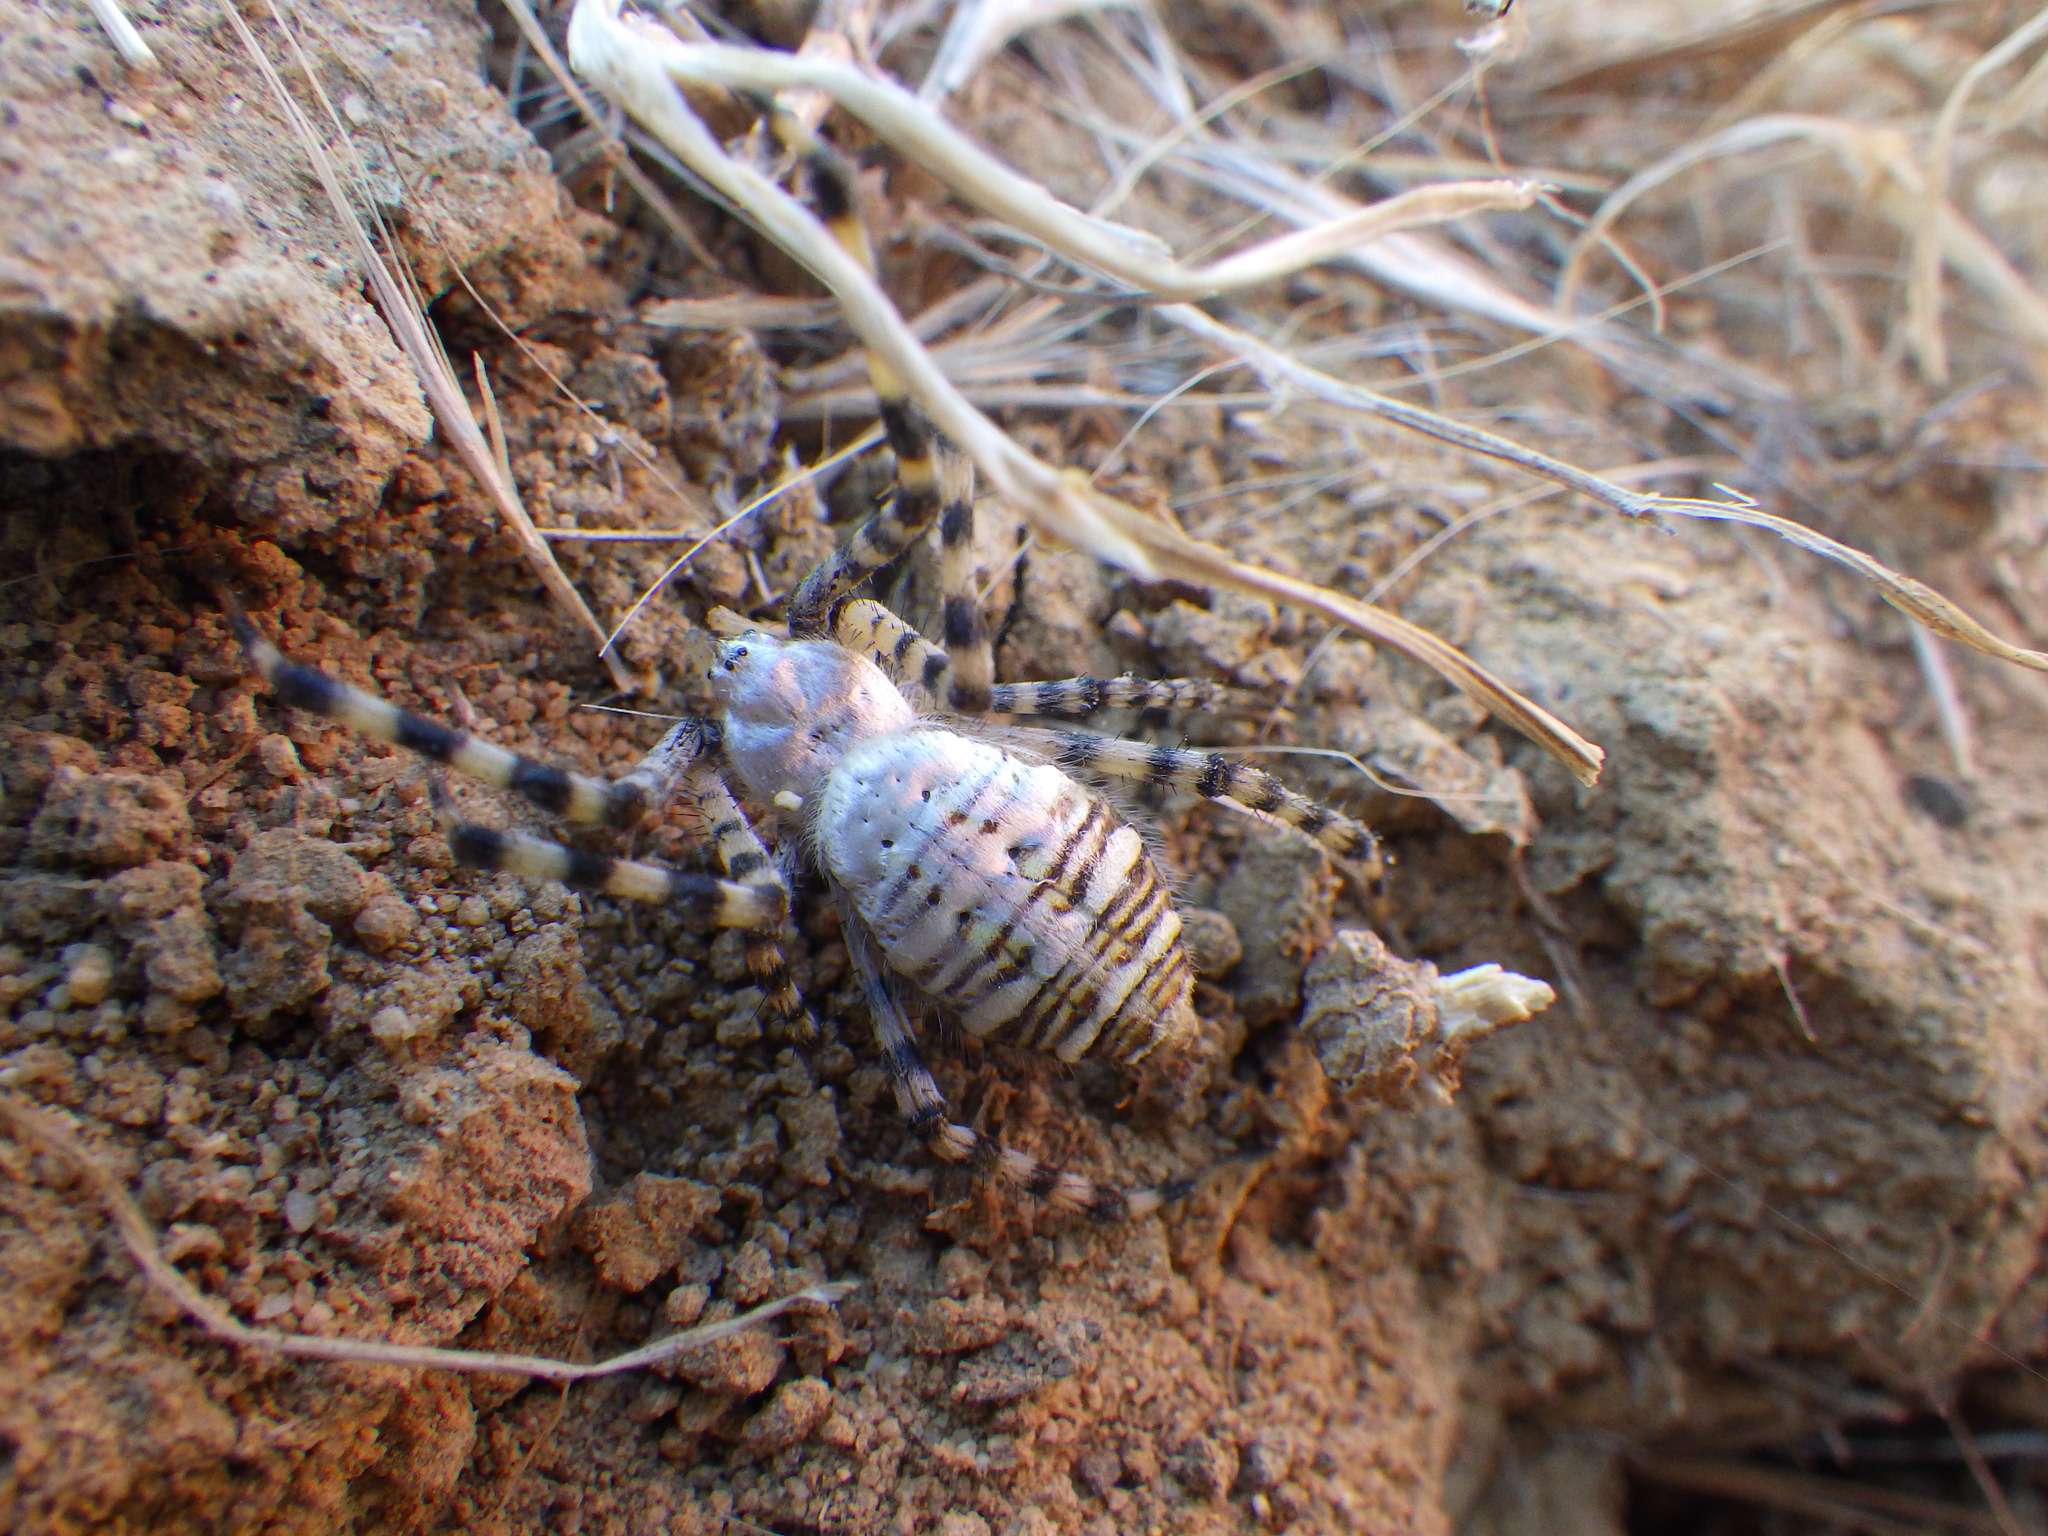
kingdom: Animalia
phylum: Arthropoda
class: Arachnida
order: Araneae
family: Araneidae
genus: Argiope
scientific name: Argiope trifasciata
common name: Banded garden spider
